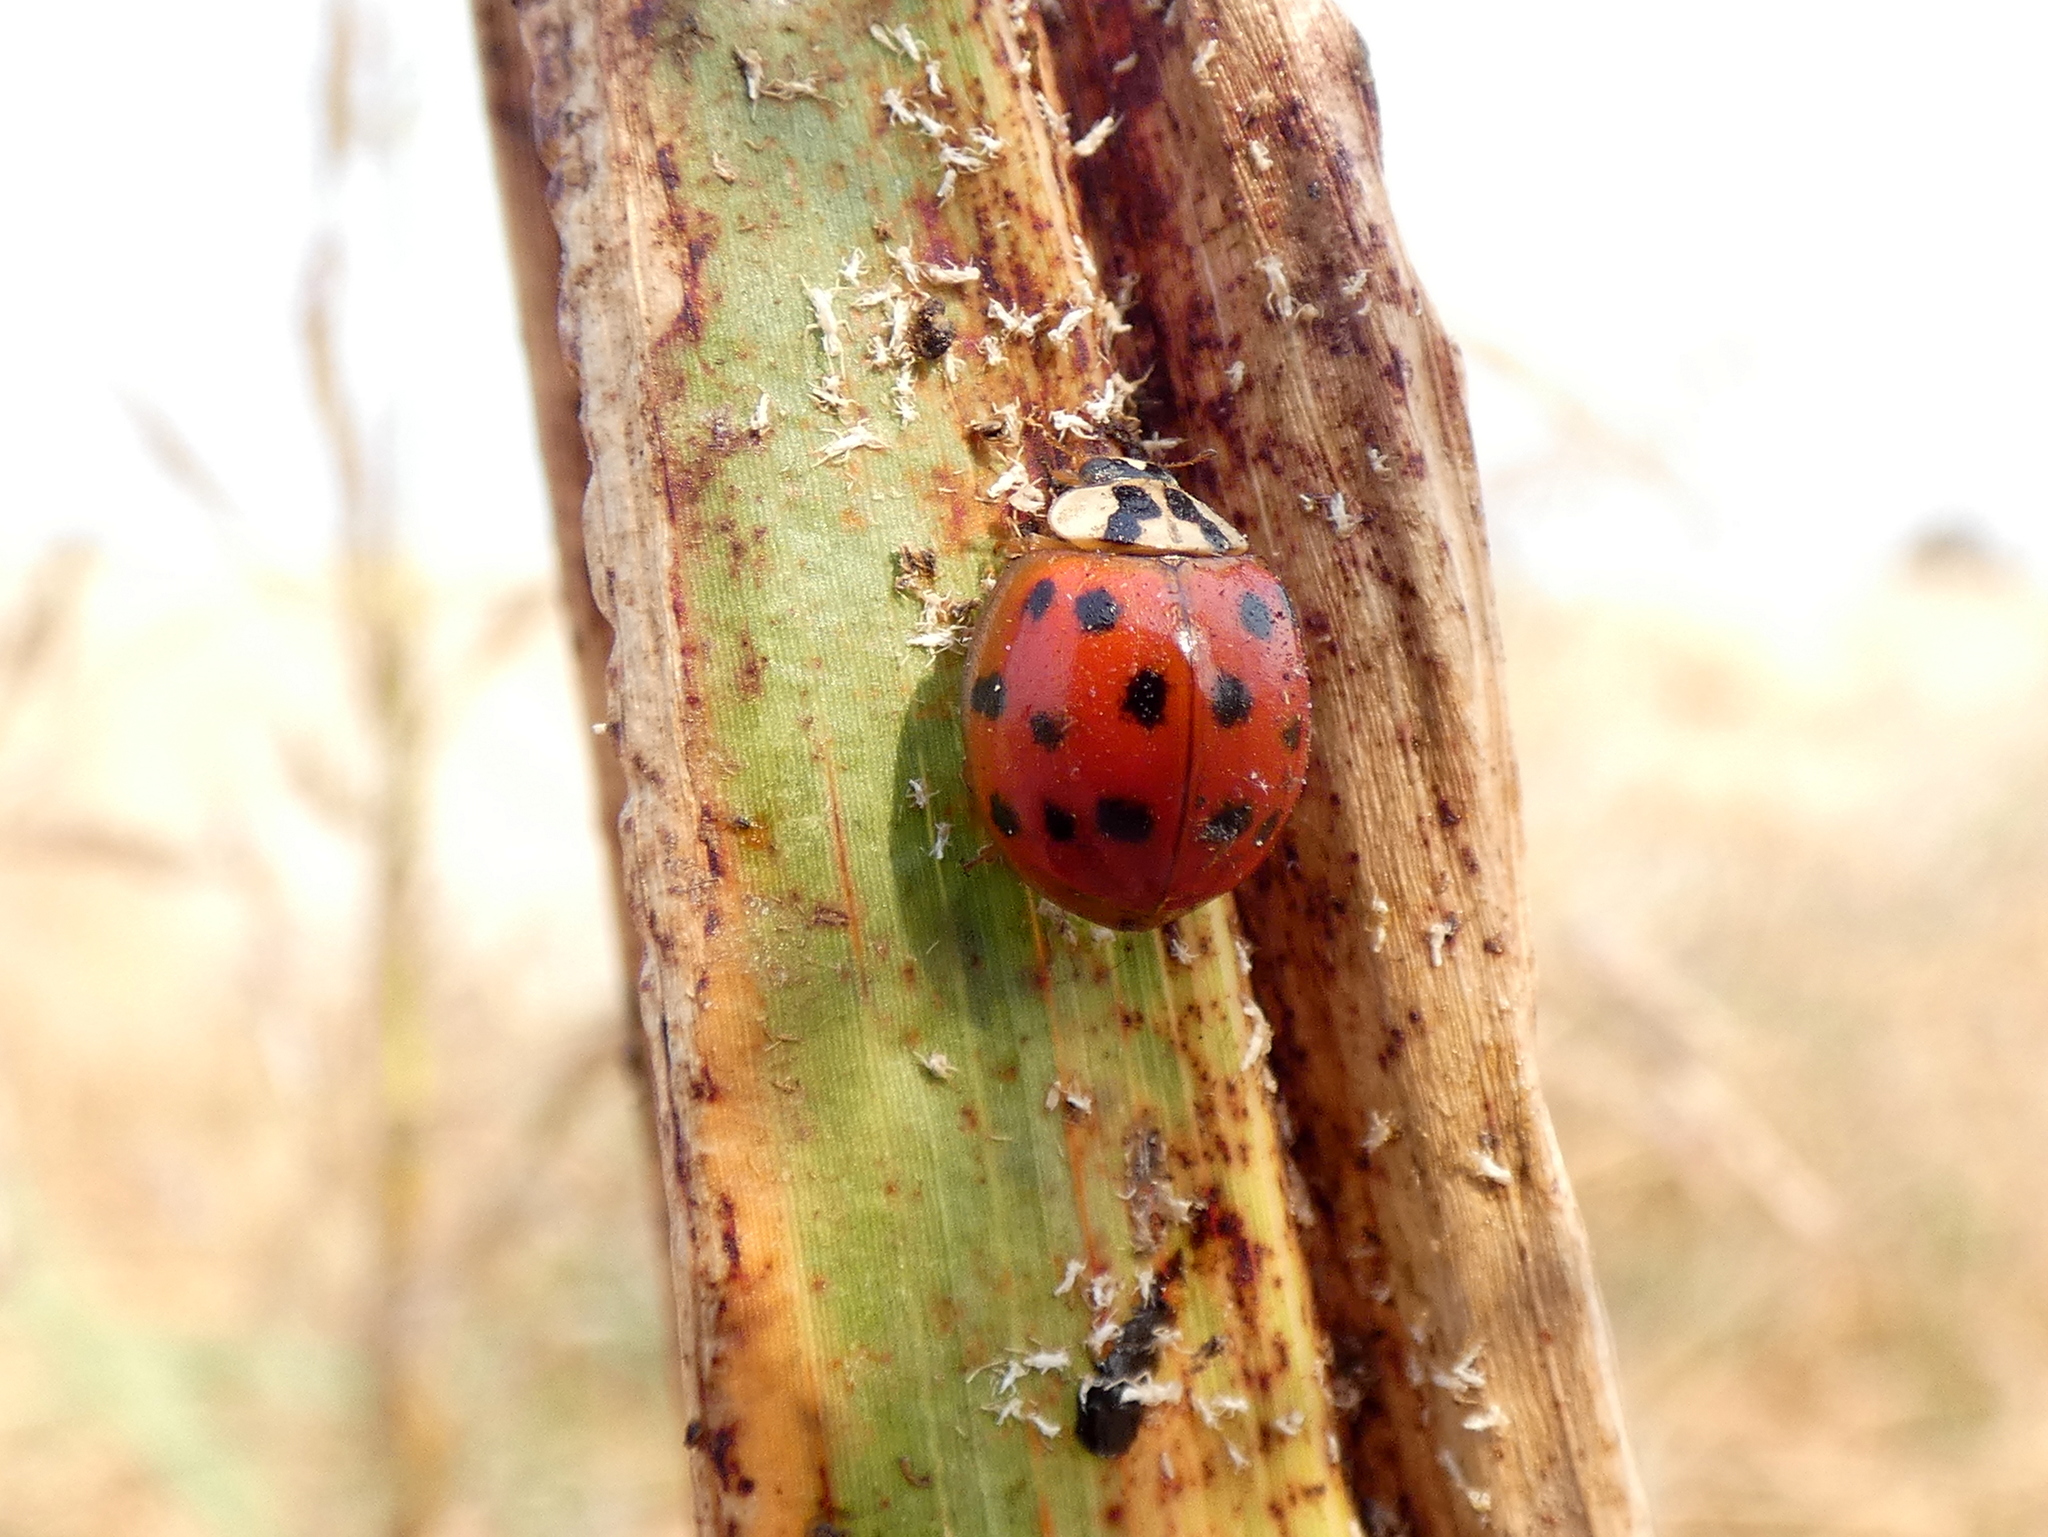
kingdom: Animalia
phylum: Arthropoda
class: Insecta
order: Coleoptera
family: Coccinellidae
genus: Harmonia
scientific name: Harmonia axyridis
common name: Harlequin ladybird
